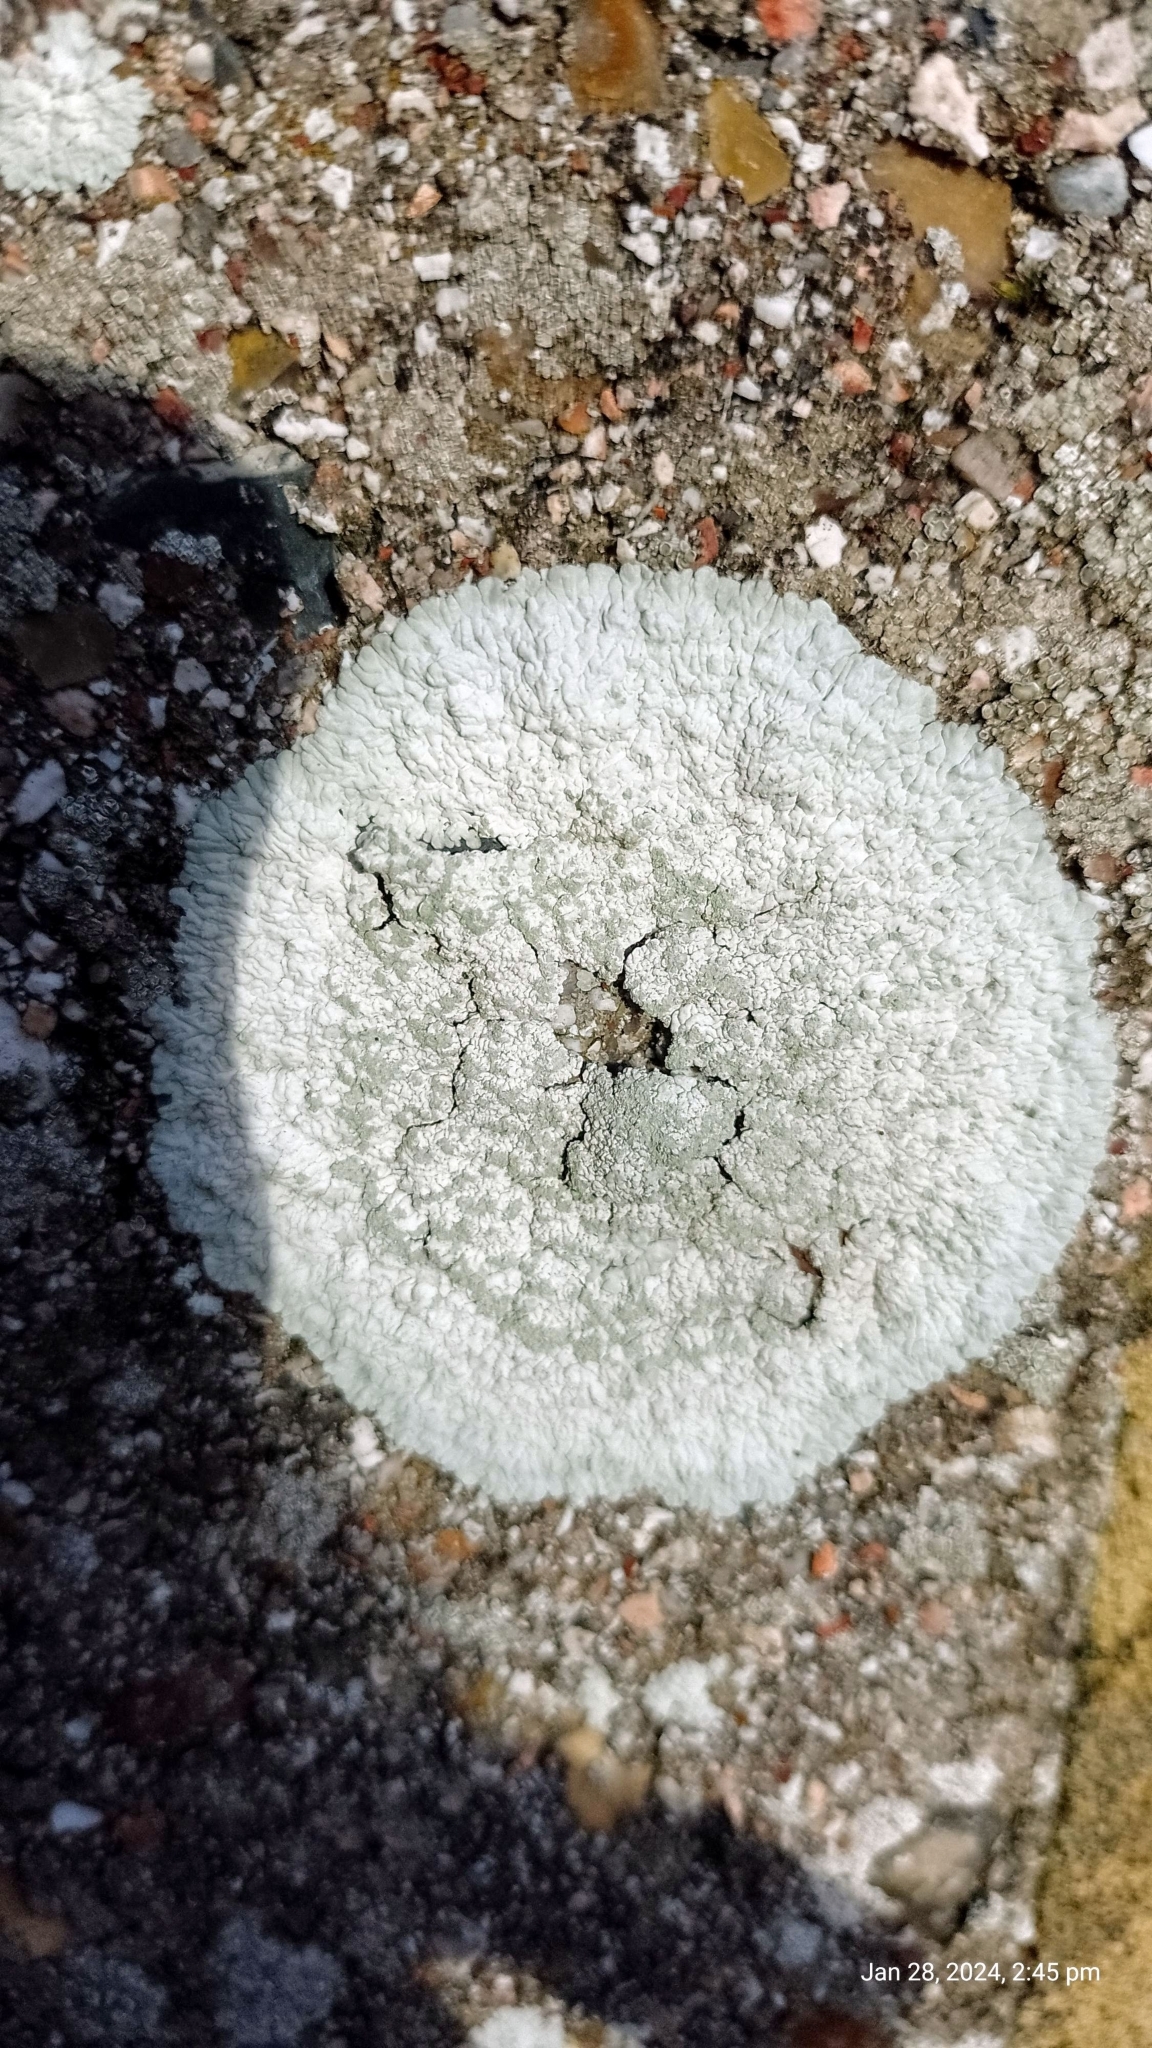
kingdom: Fungi
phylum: Ascomycota
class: Lecanoromycetes
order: Caliciales
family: Caliciaceae
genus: Diploicia
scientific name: Diploicia canescens
